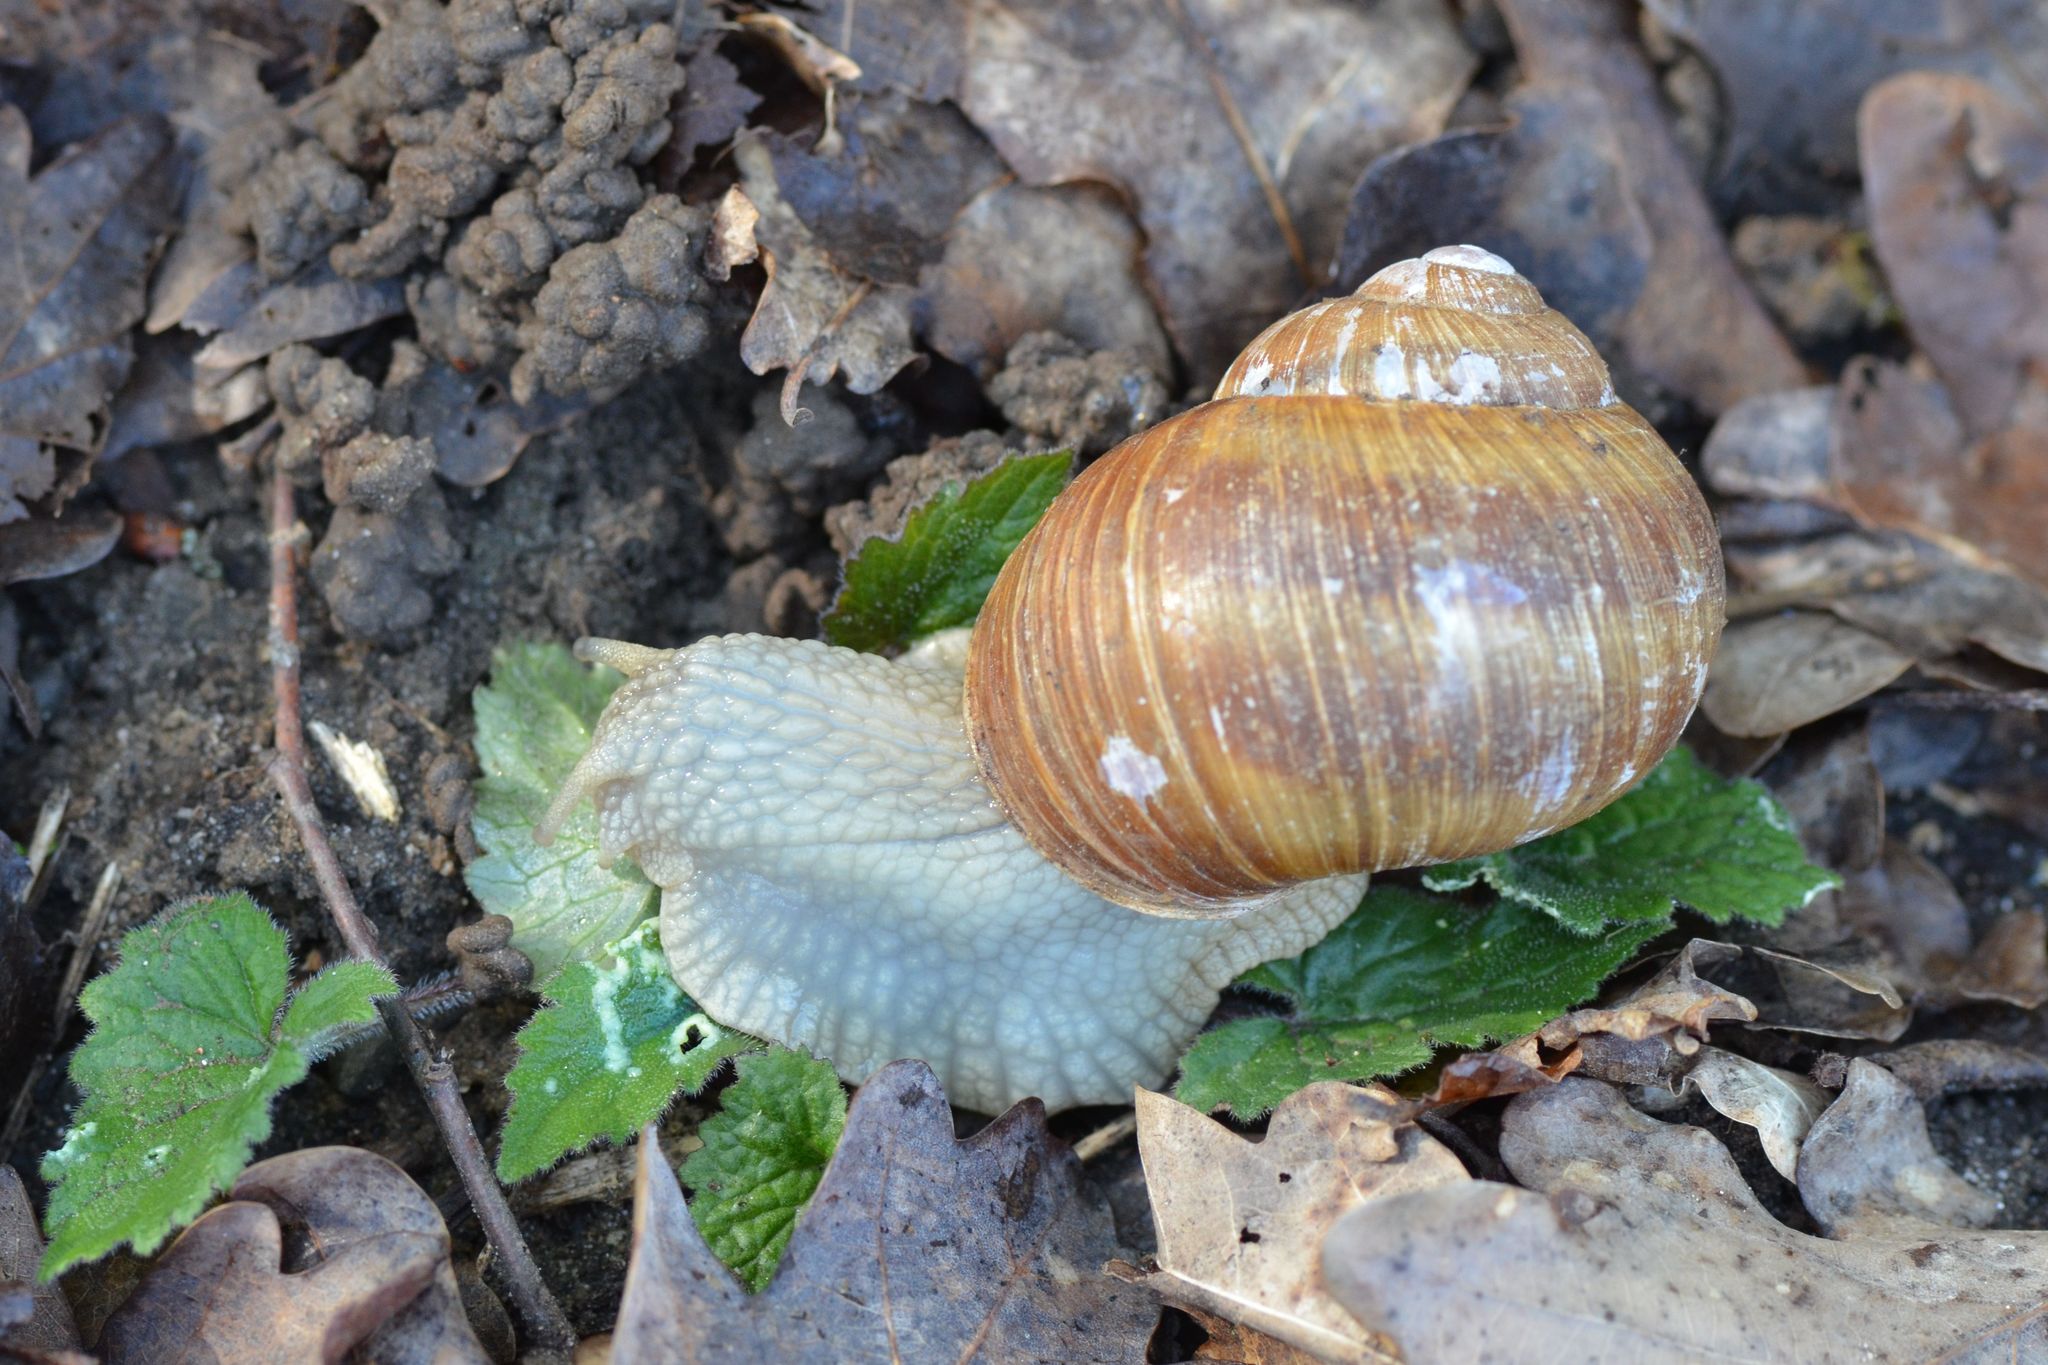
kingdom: Animalia
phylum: Mollusca
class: Gastropoda
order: Stylommatophora
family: Helicidae
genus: Helix
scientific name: Helix pomatia
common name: Roman snail
